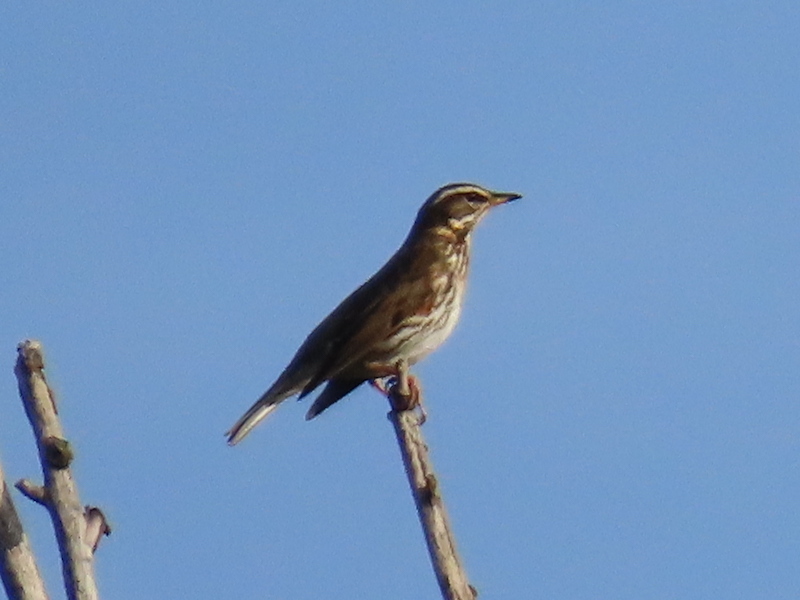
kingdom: Animalia
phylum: Chordata
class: Aves
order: Passeriformes
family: Turdidae
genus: Turdus
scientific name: Turdus iliacus
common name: Redwing
